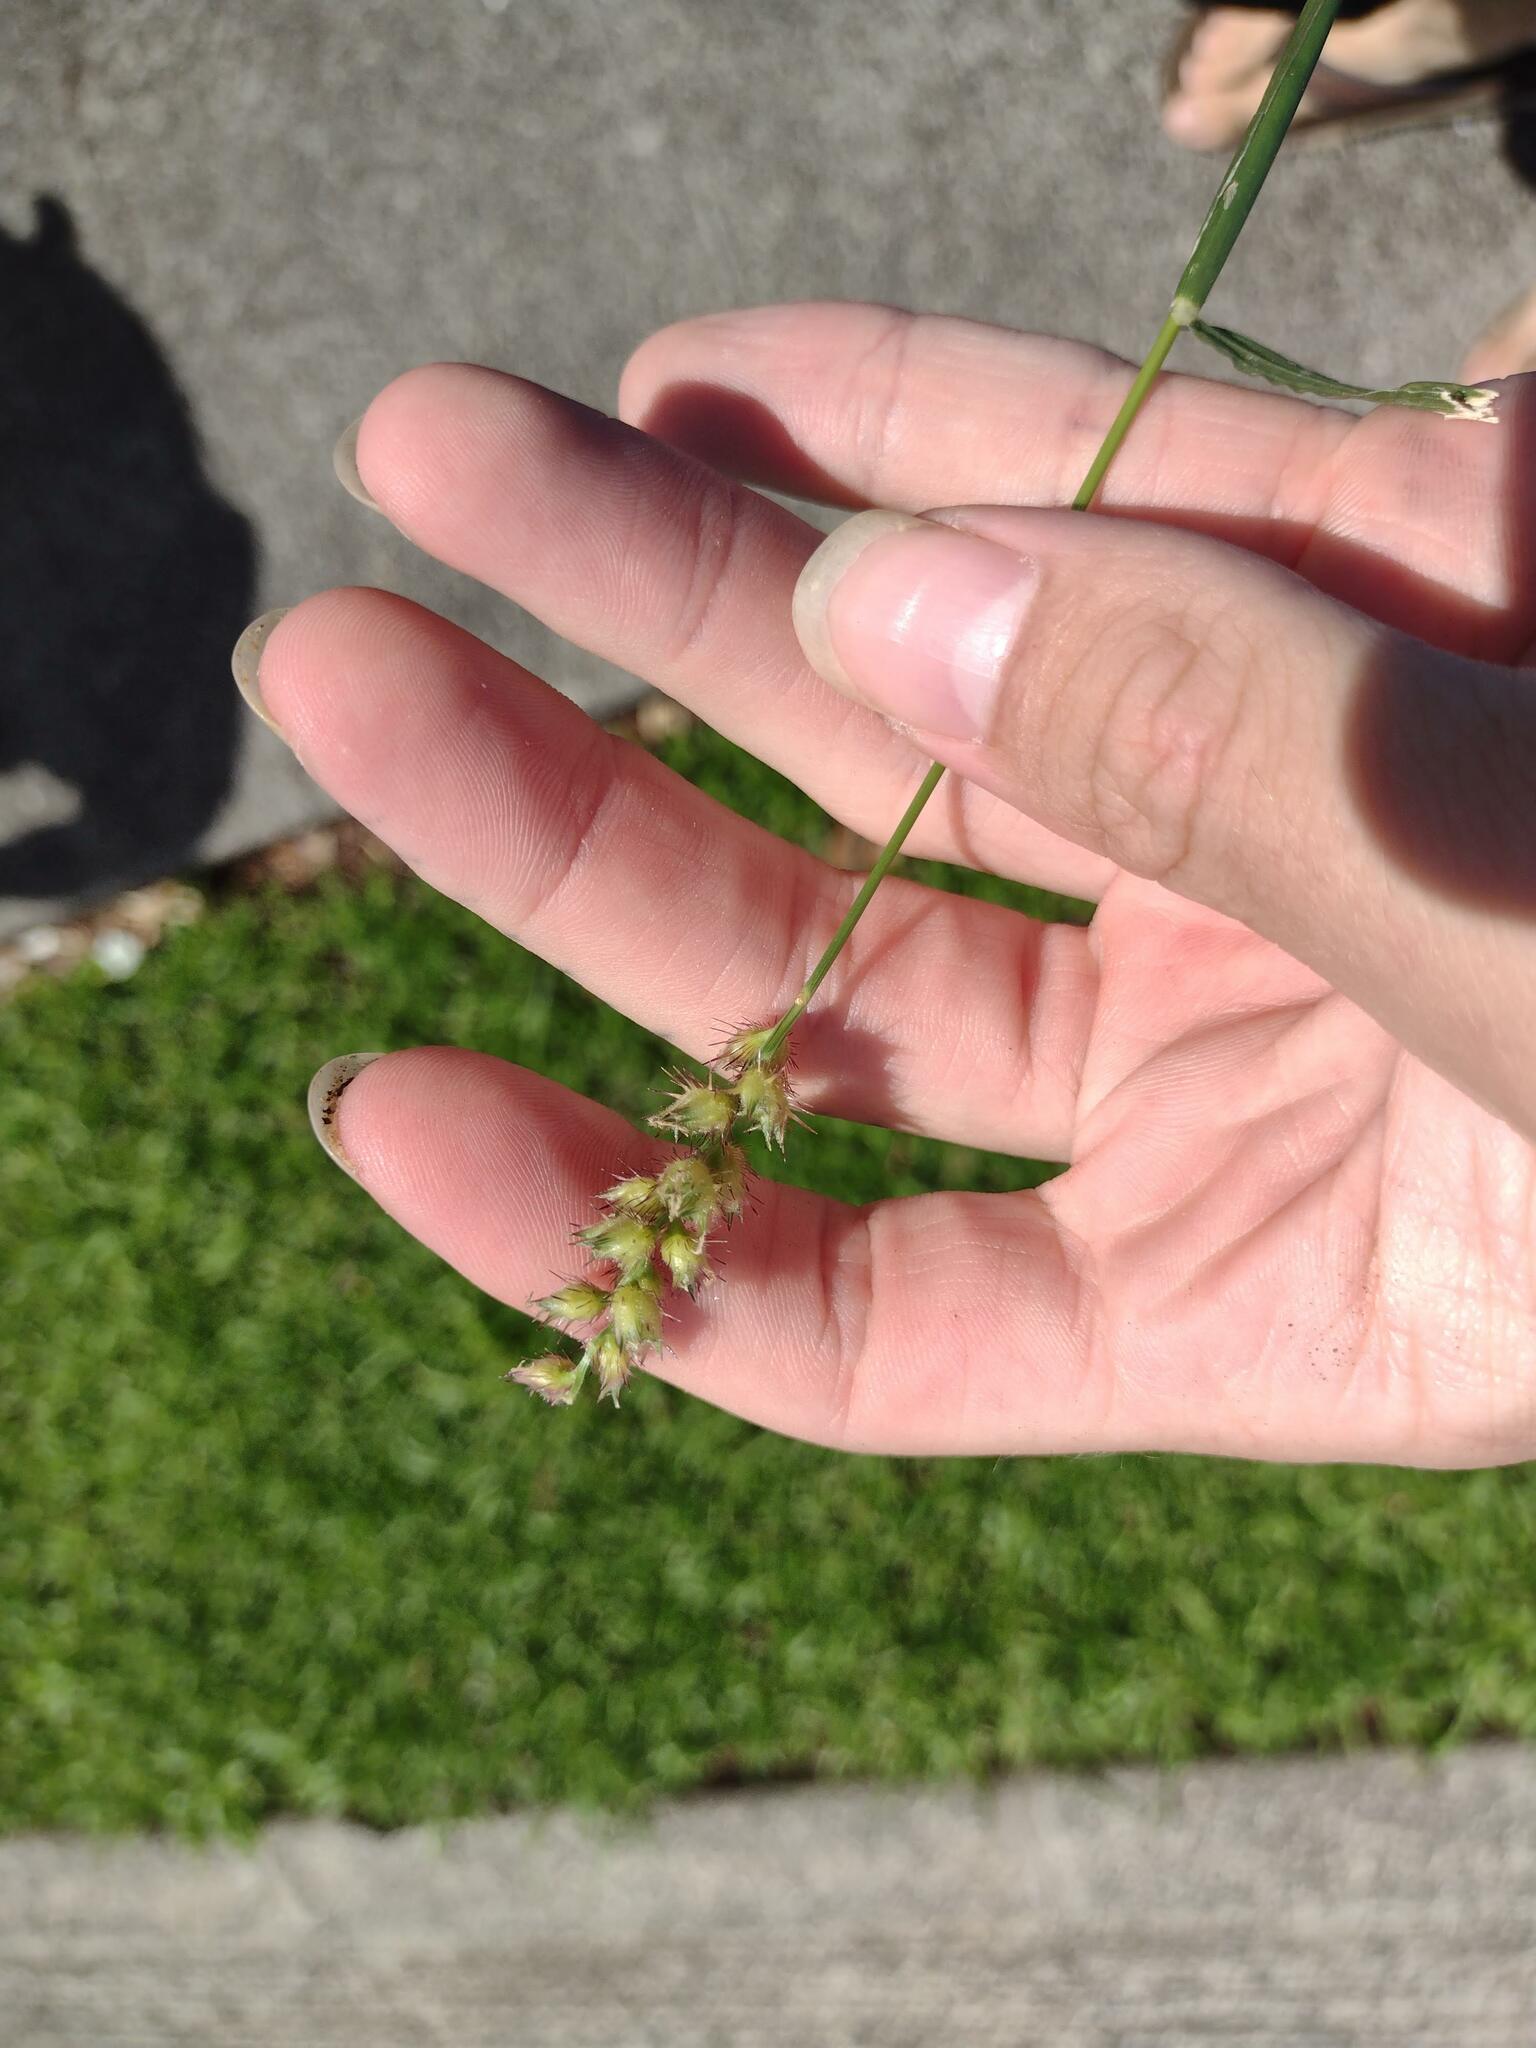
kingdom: Plantae
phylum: Tracheophyta
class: Liliopsida
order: Poales
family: Poaceae
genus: Cenchrus
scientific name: Cenchrus echinatus
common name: Southern sandbur
